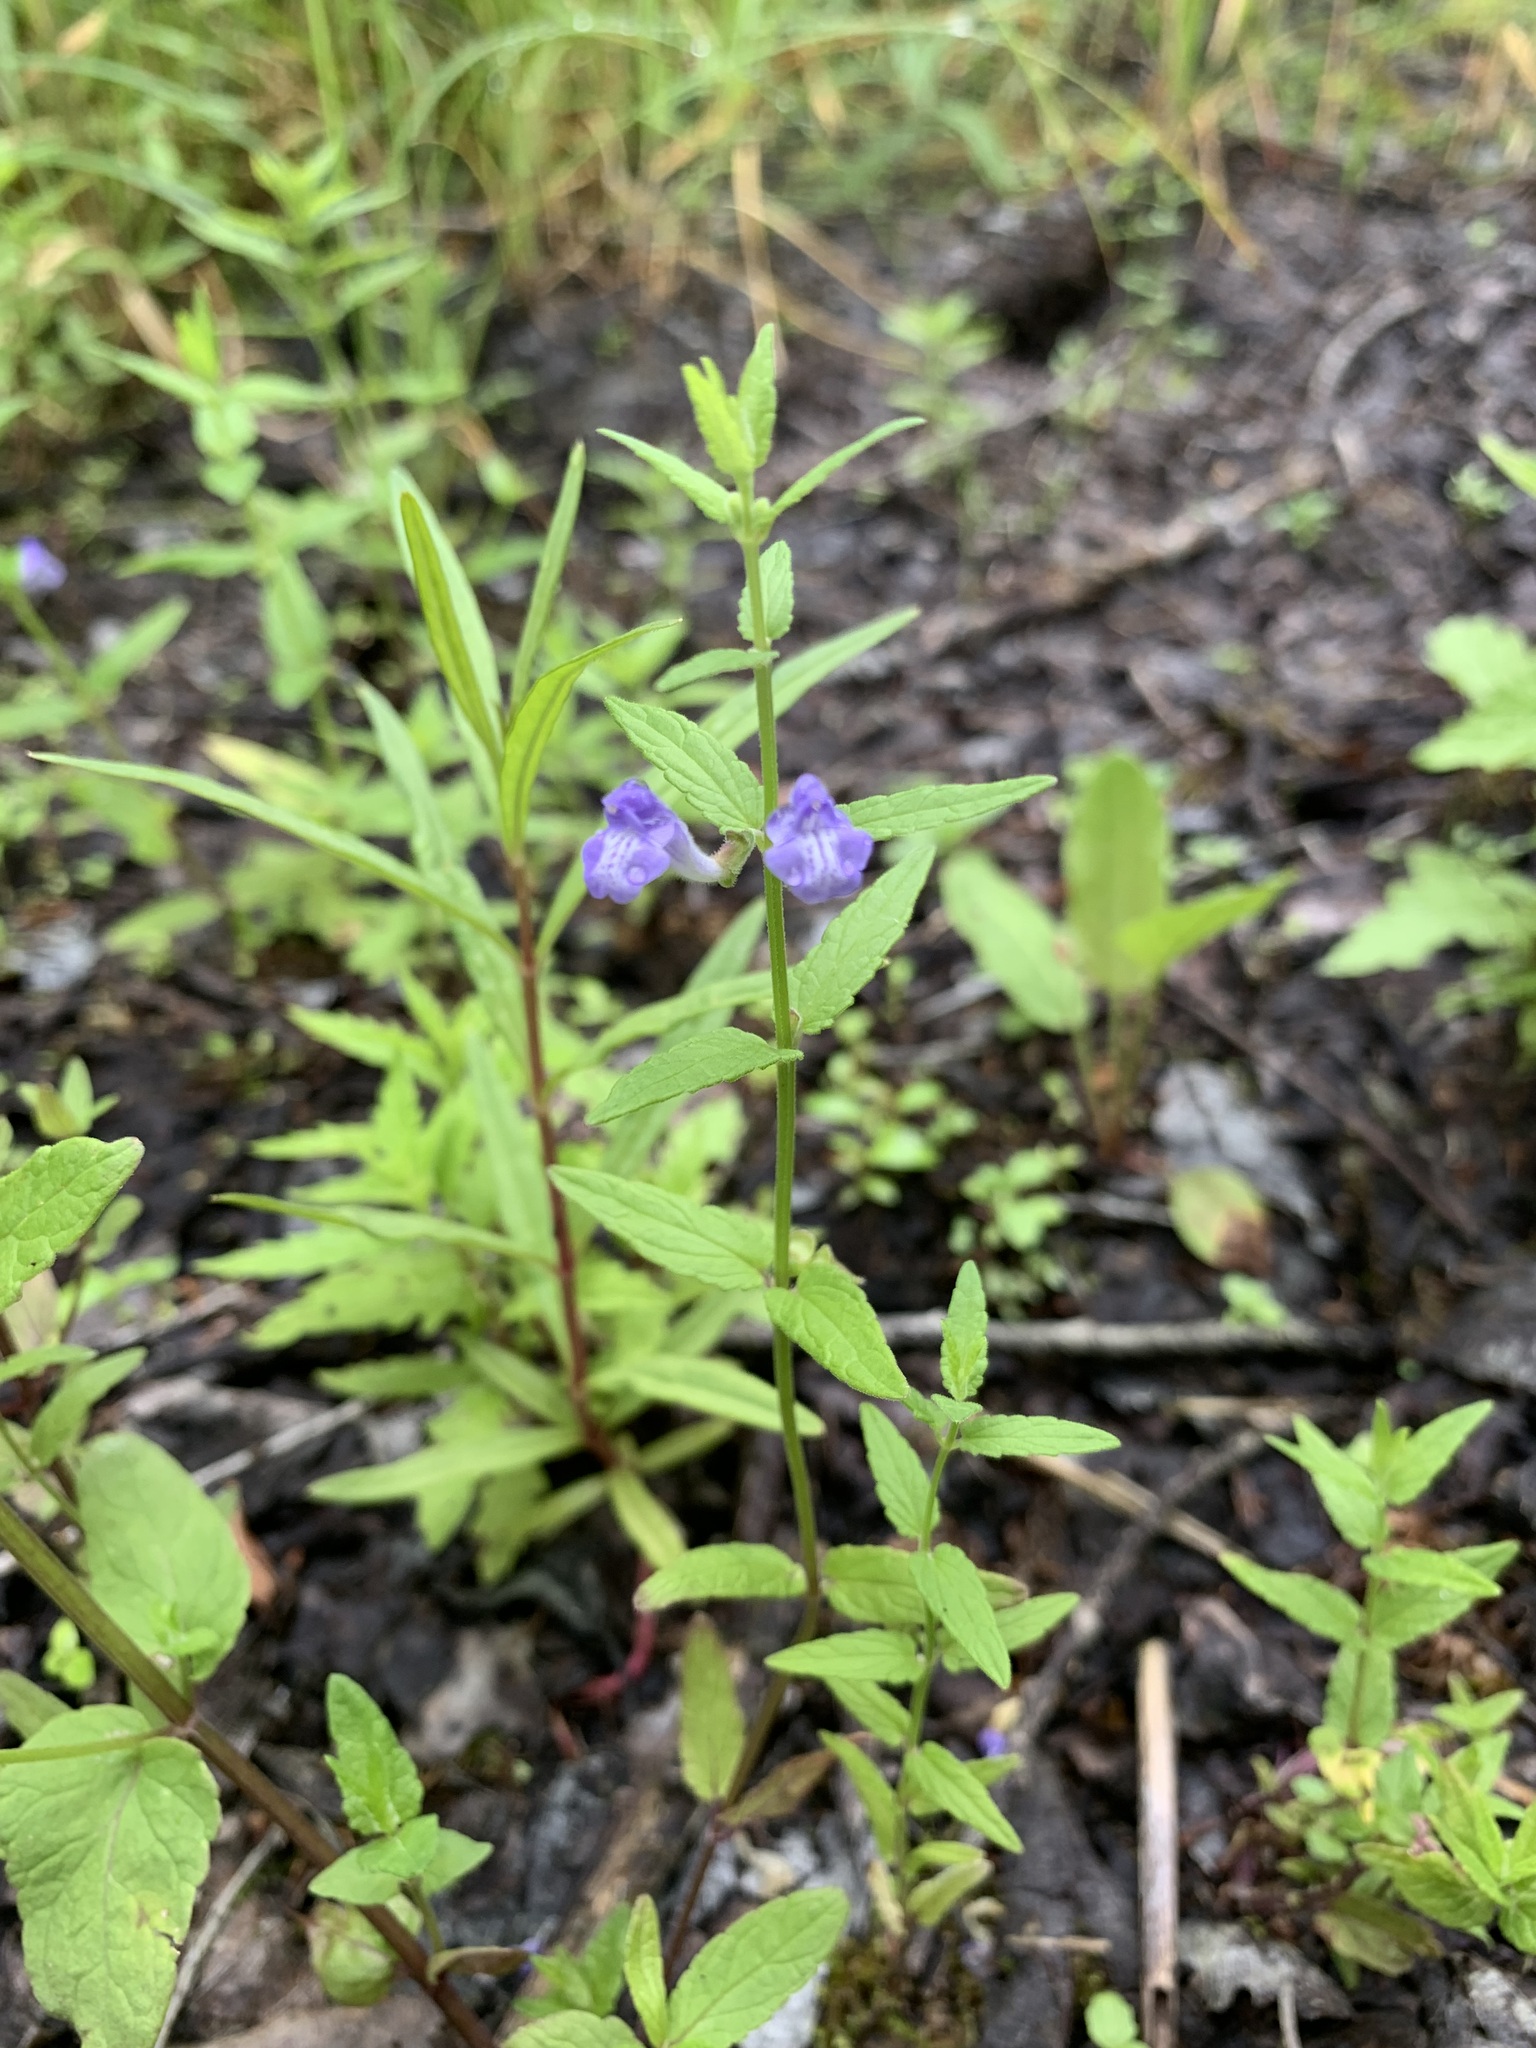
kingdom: Plantae
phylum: Tracheophyta
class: Magnoliopsida
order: Lamiales
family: Lamiaceae
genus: Scutellaria
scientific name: Scutellaria galericulata
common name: Skullcap
